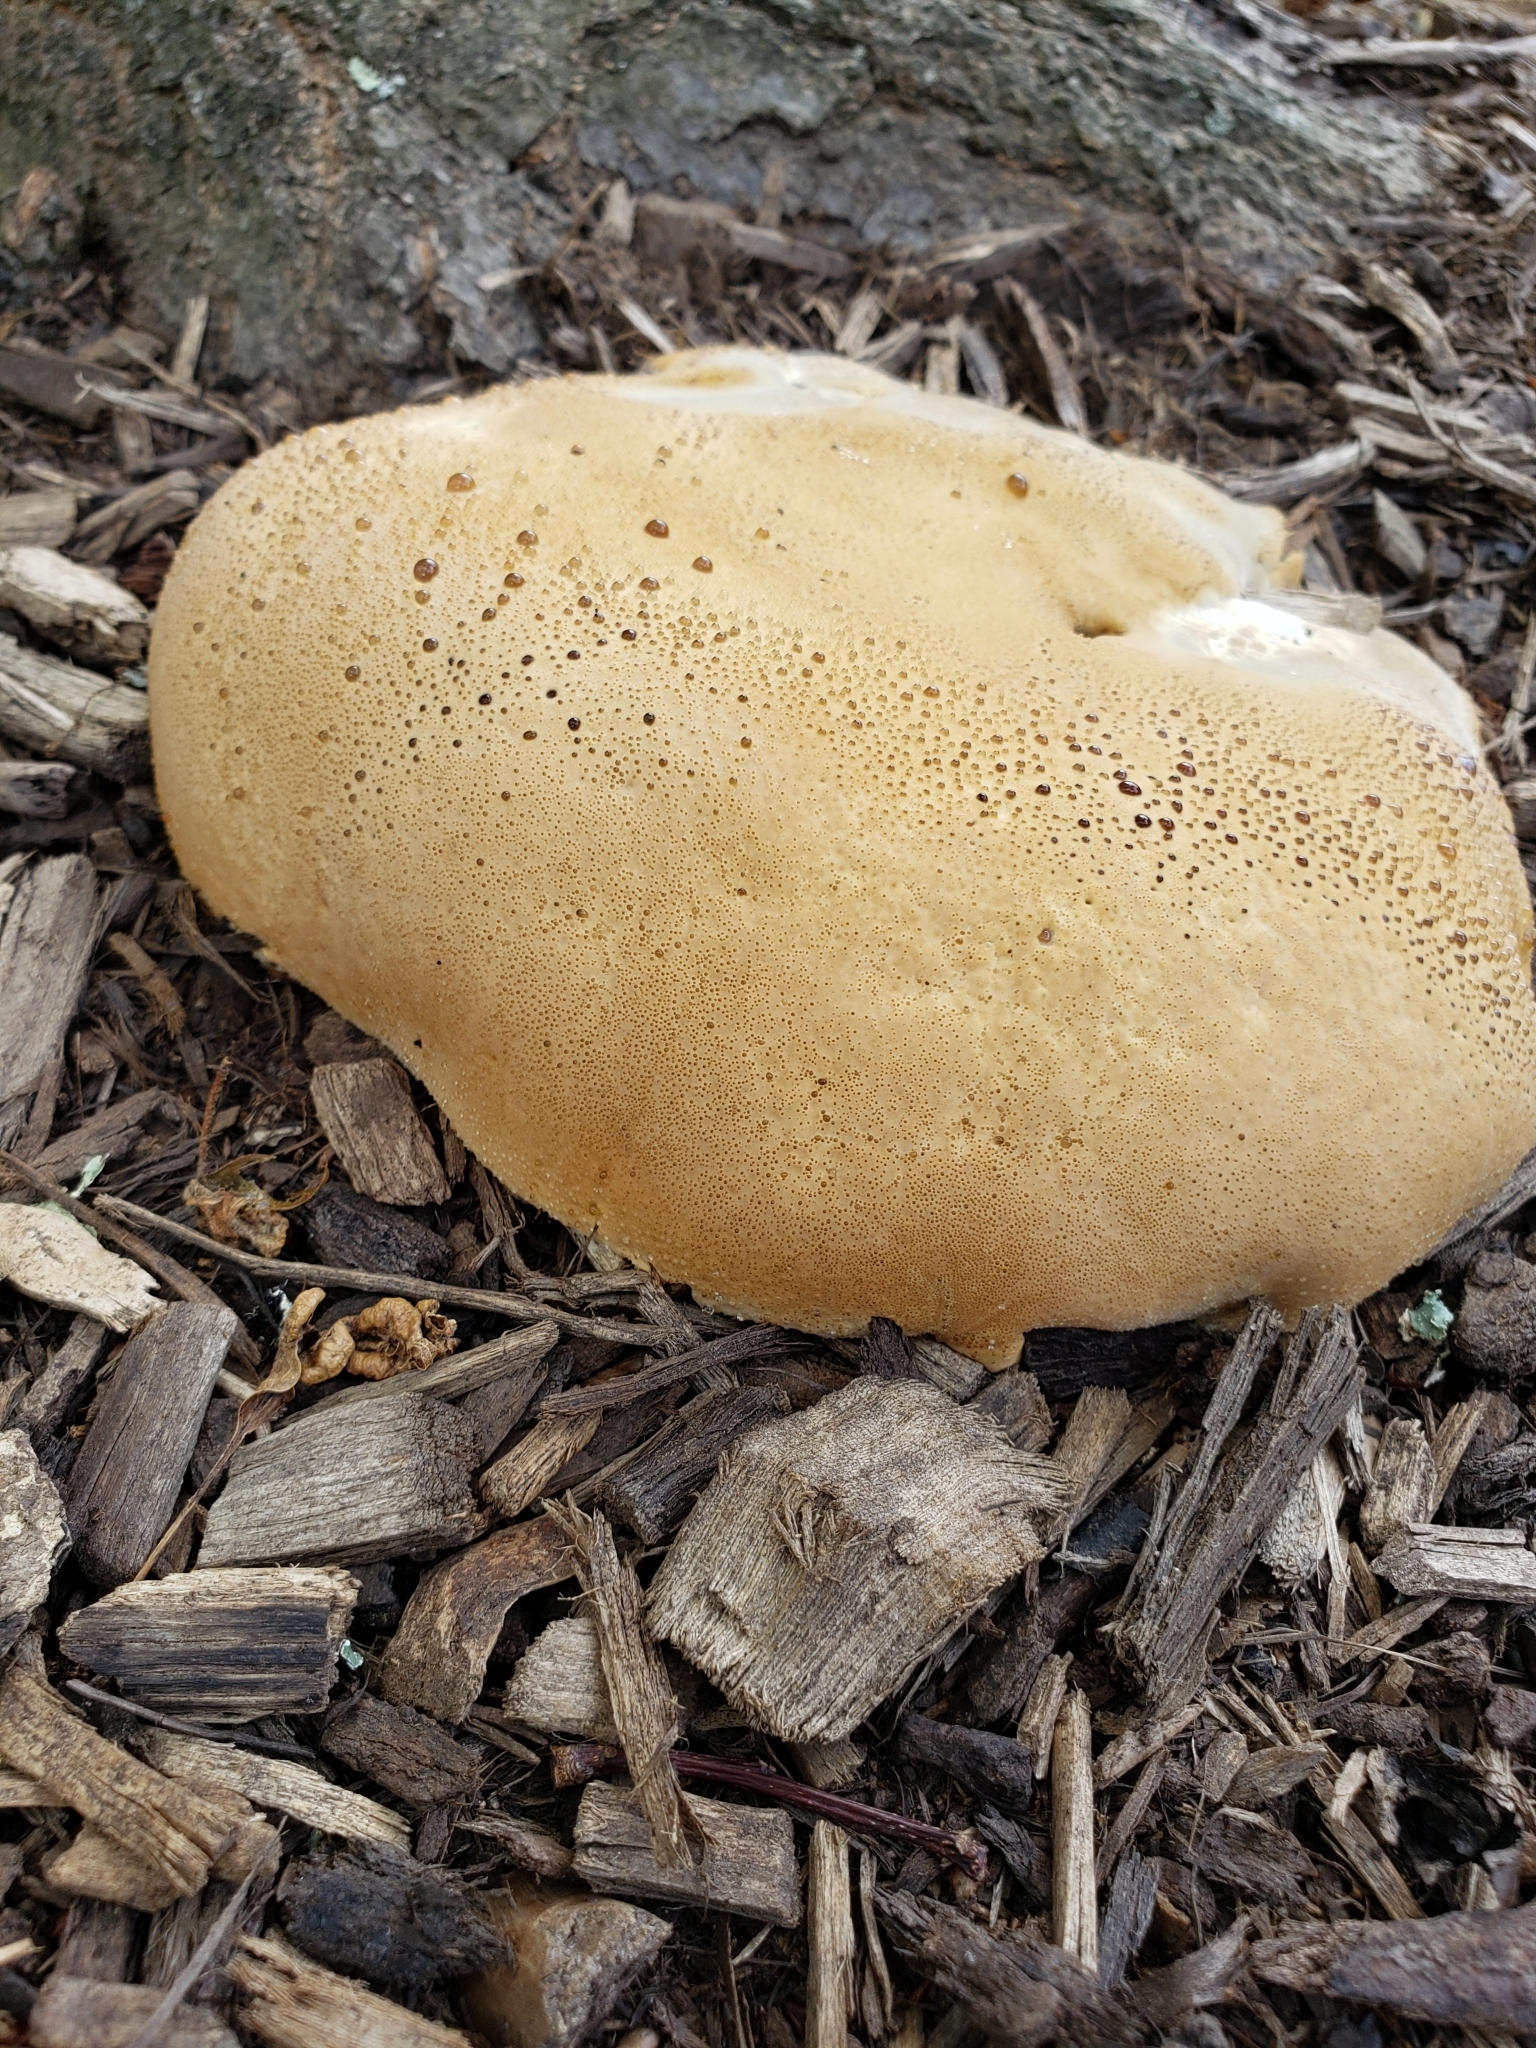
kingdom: Fungi
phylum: Basidiomycota
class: Agaricomycetes
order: Hymenochaetales
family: Hymenochaetaceae
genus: Pseudoinonotus
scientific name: Pseudoinonotus dryadeus
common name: Oak bracket
